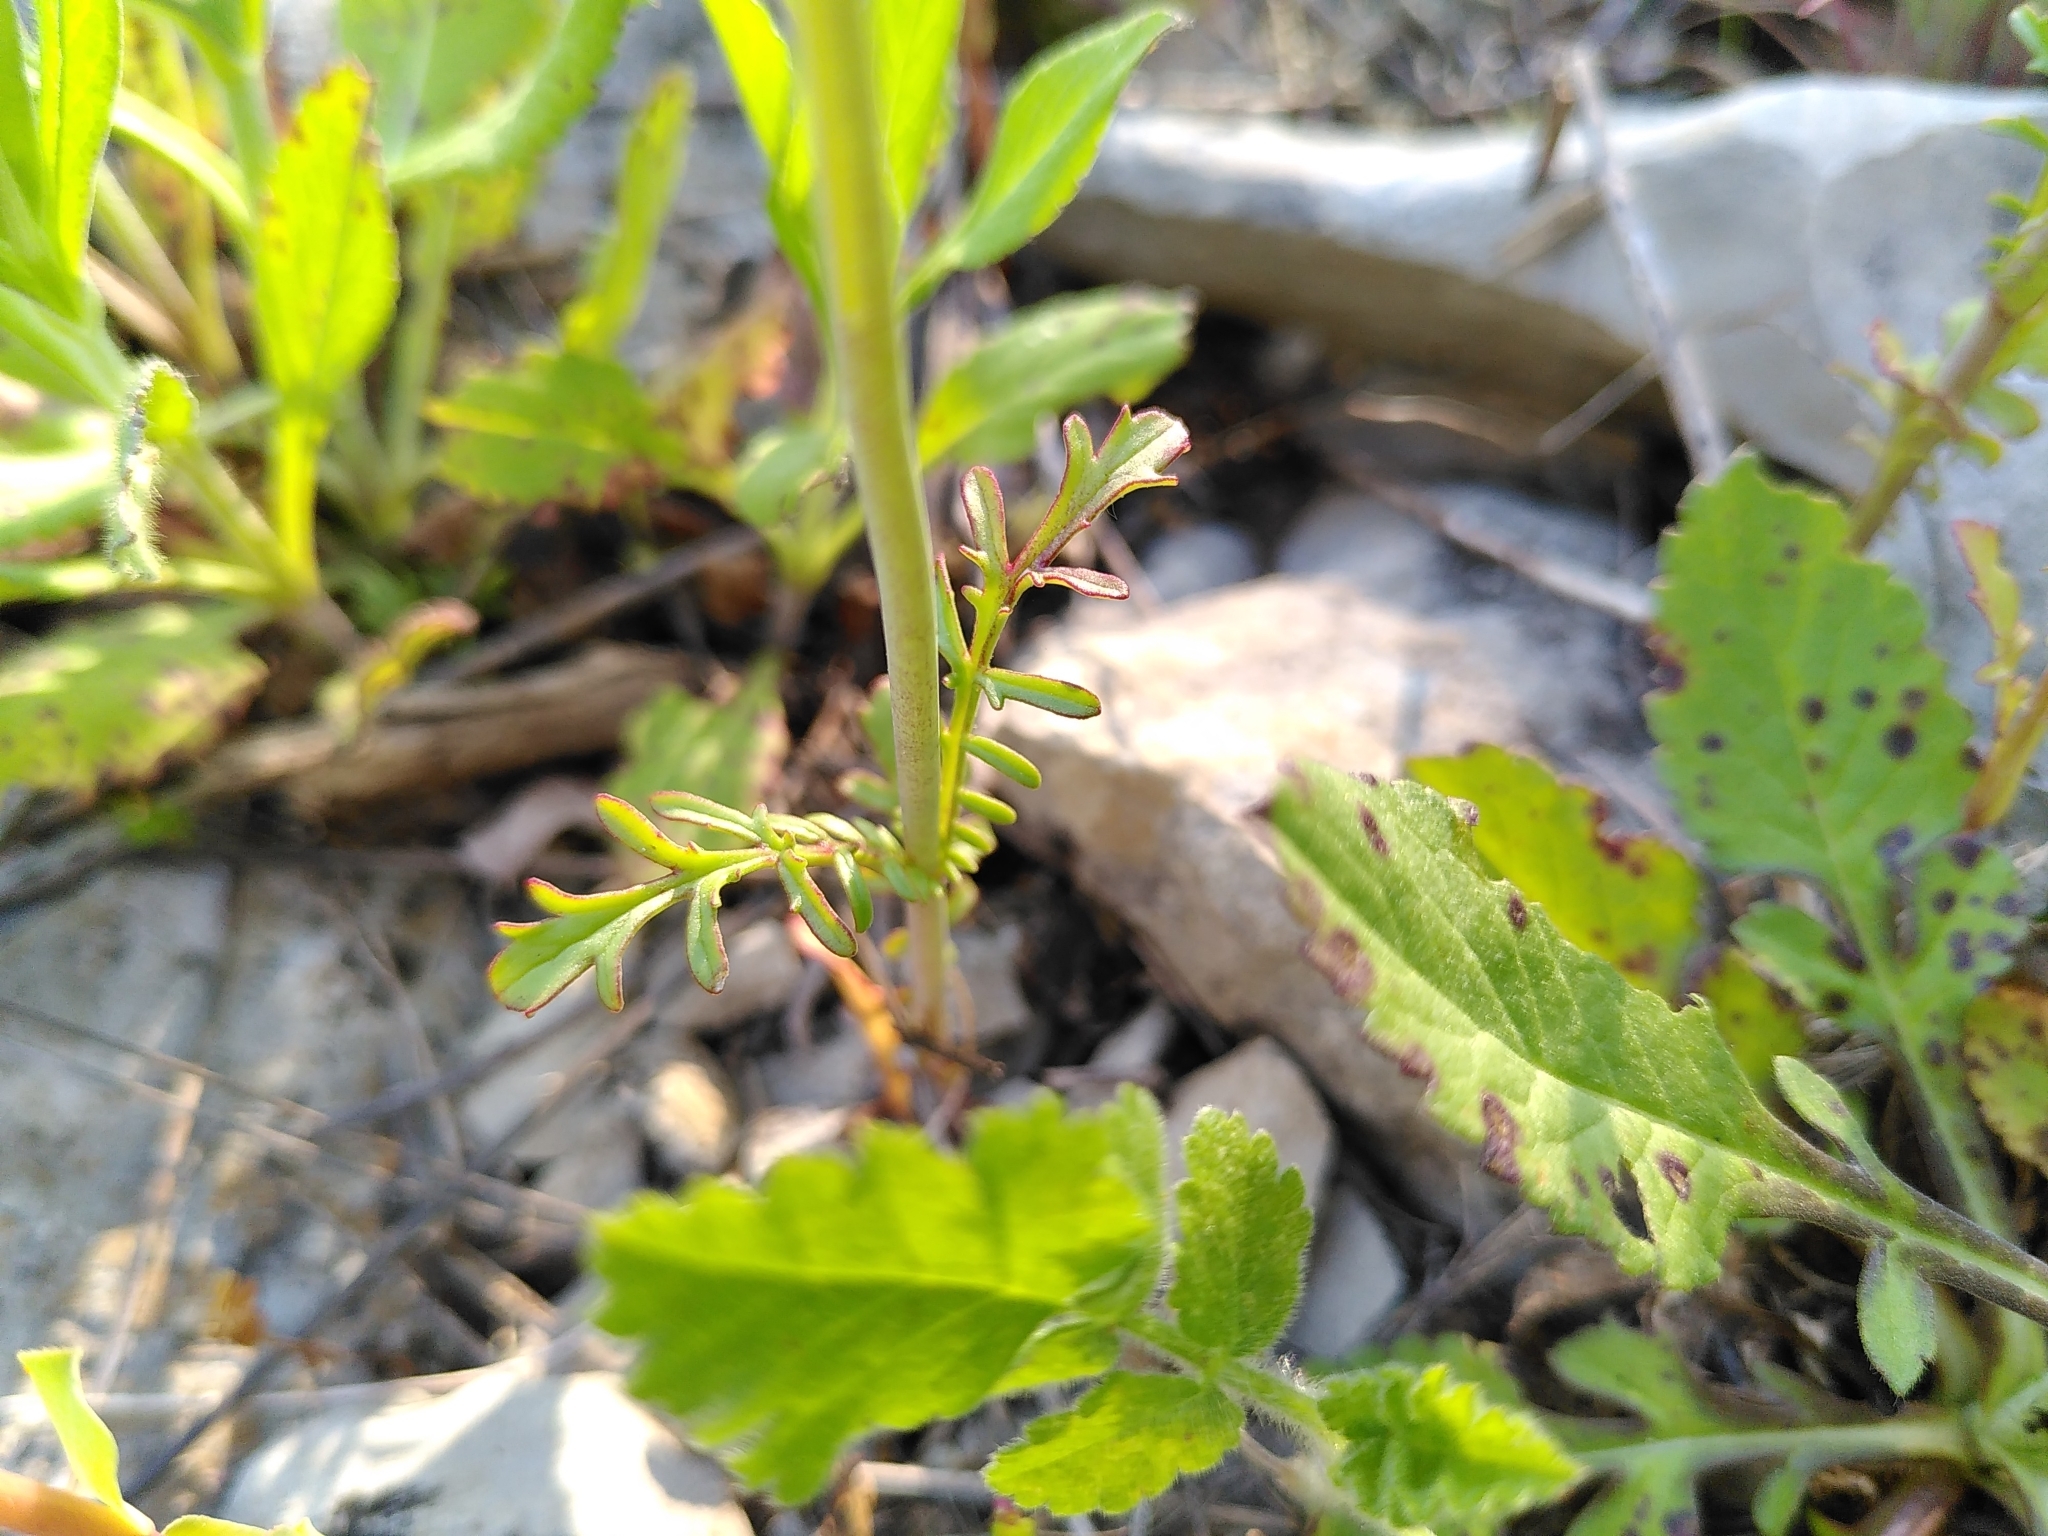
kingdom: Plantae
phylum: Tracheophyta
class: Magnoliopsida
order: Dipsacales
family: Caprifoliaceae
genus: Centranthus
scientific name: Centranthus calcitrapae
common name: Annual valerian
